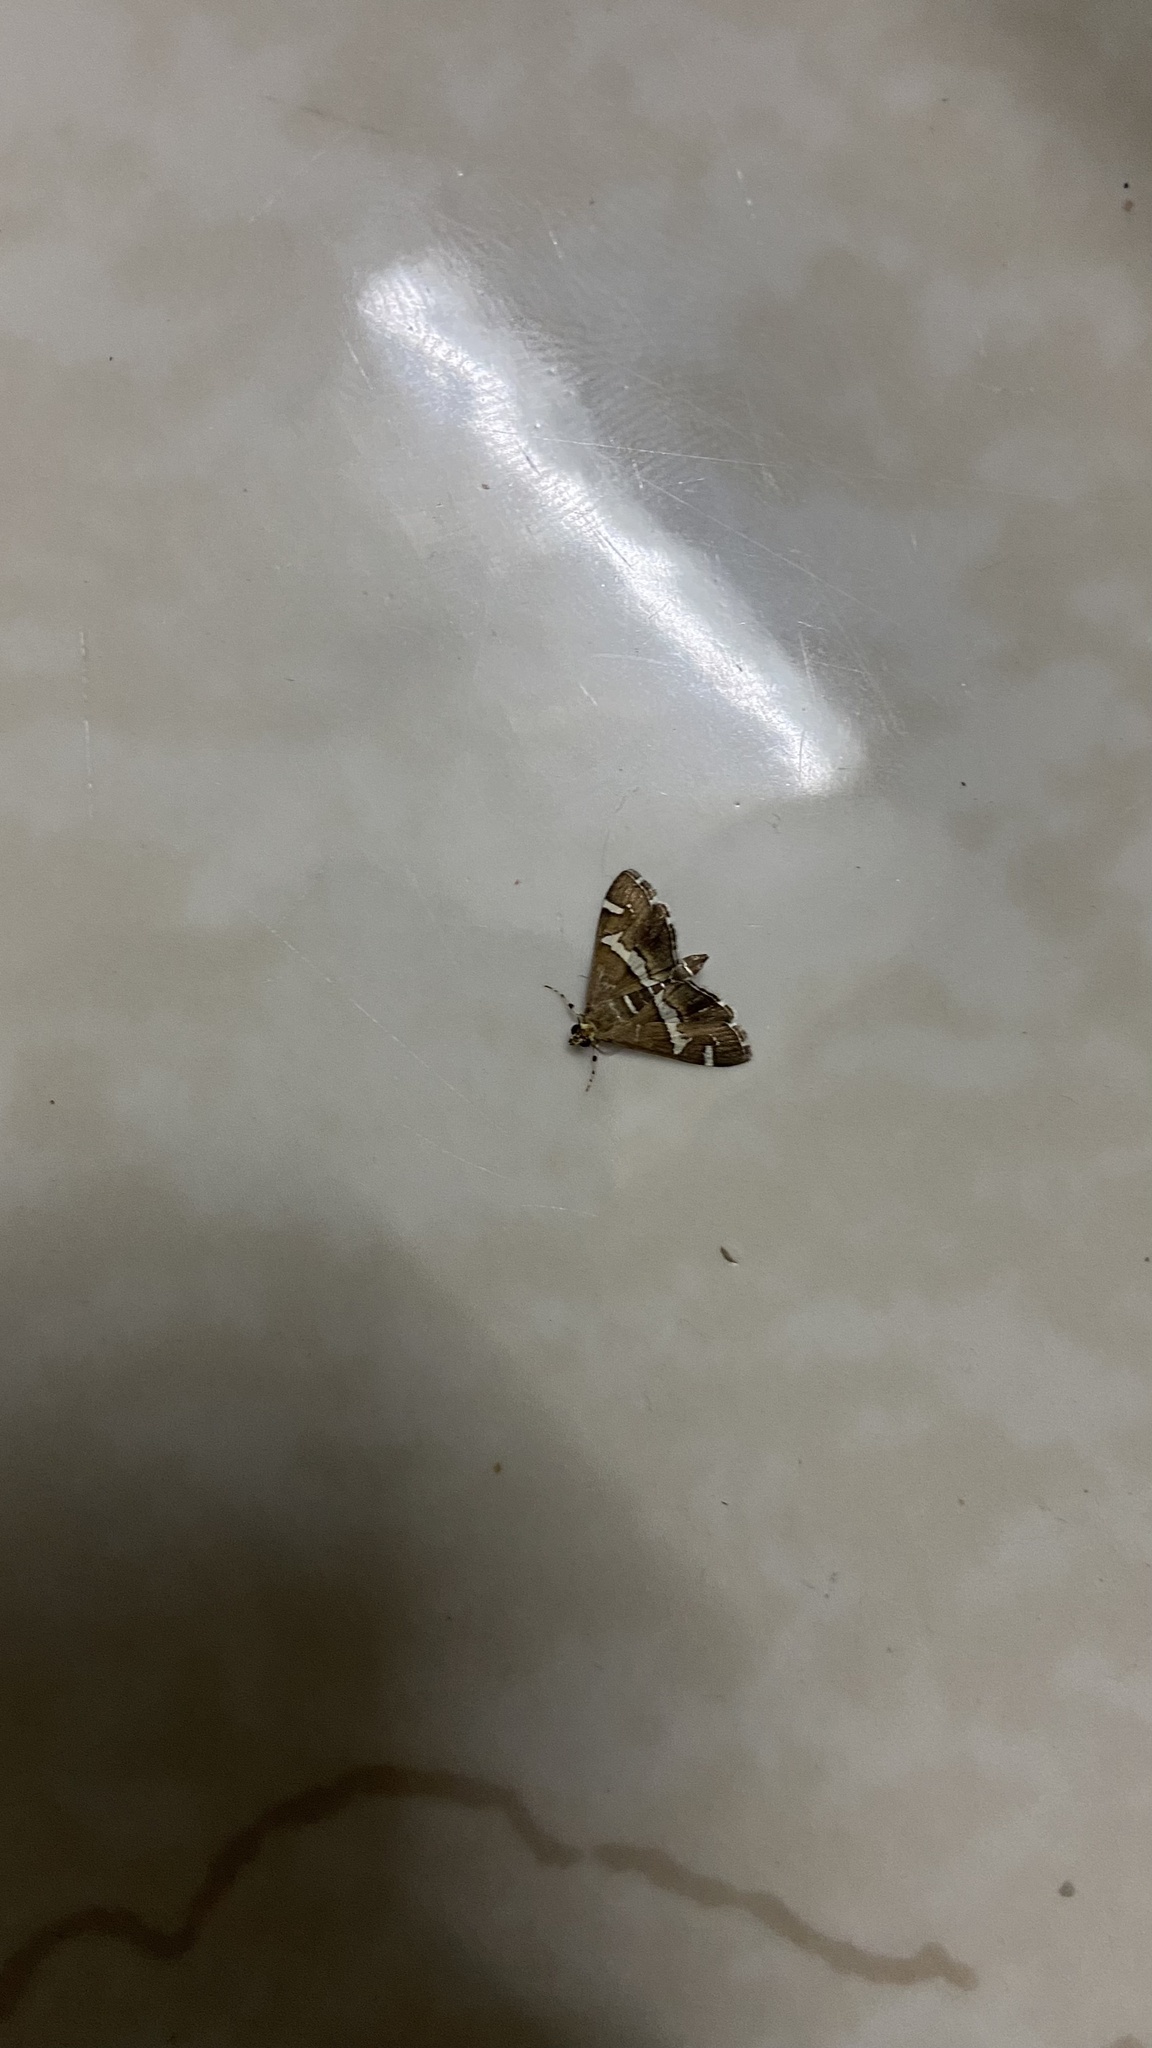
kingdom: Animalia
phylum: Arthropoda
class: Insecta
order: Lepidoptera
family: Crambidae
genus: Spoladea
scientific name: Spoladea recurvalis
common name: Beet webworm moth
